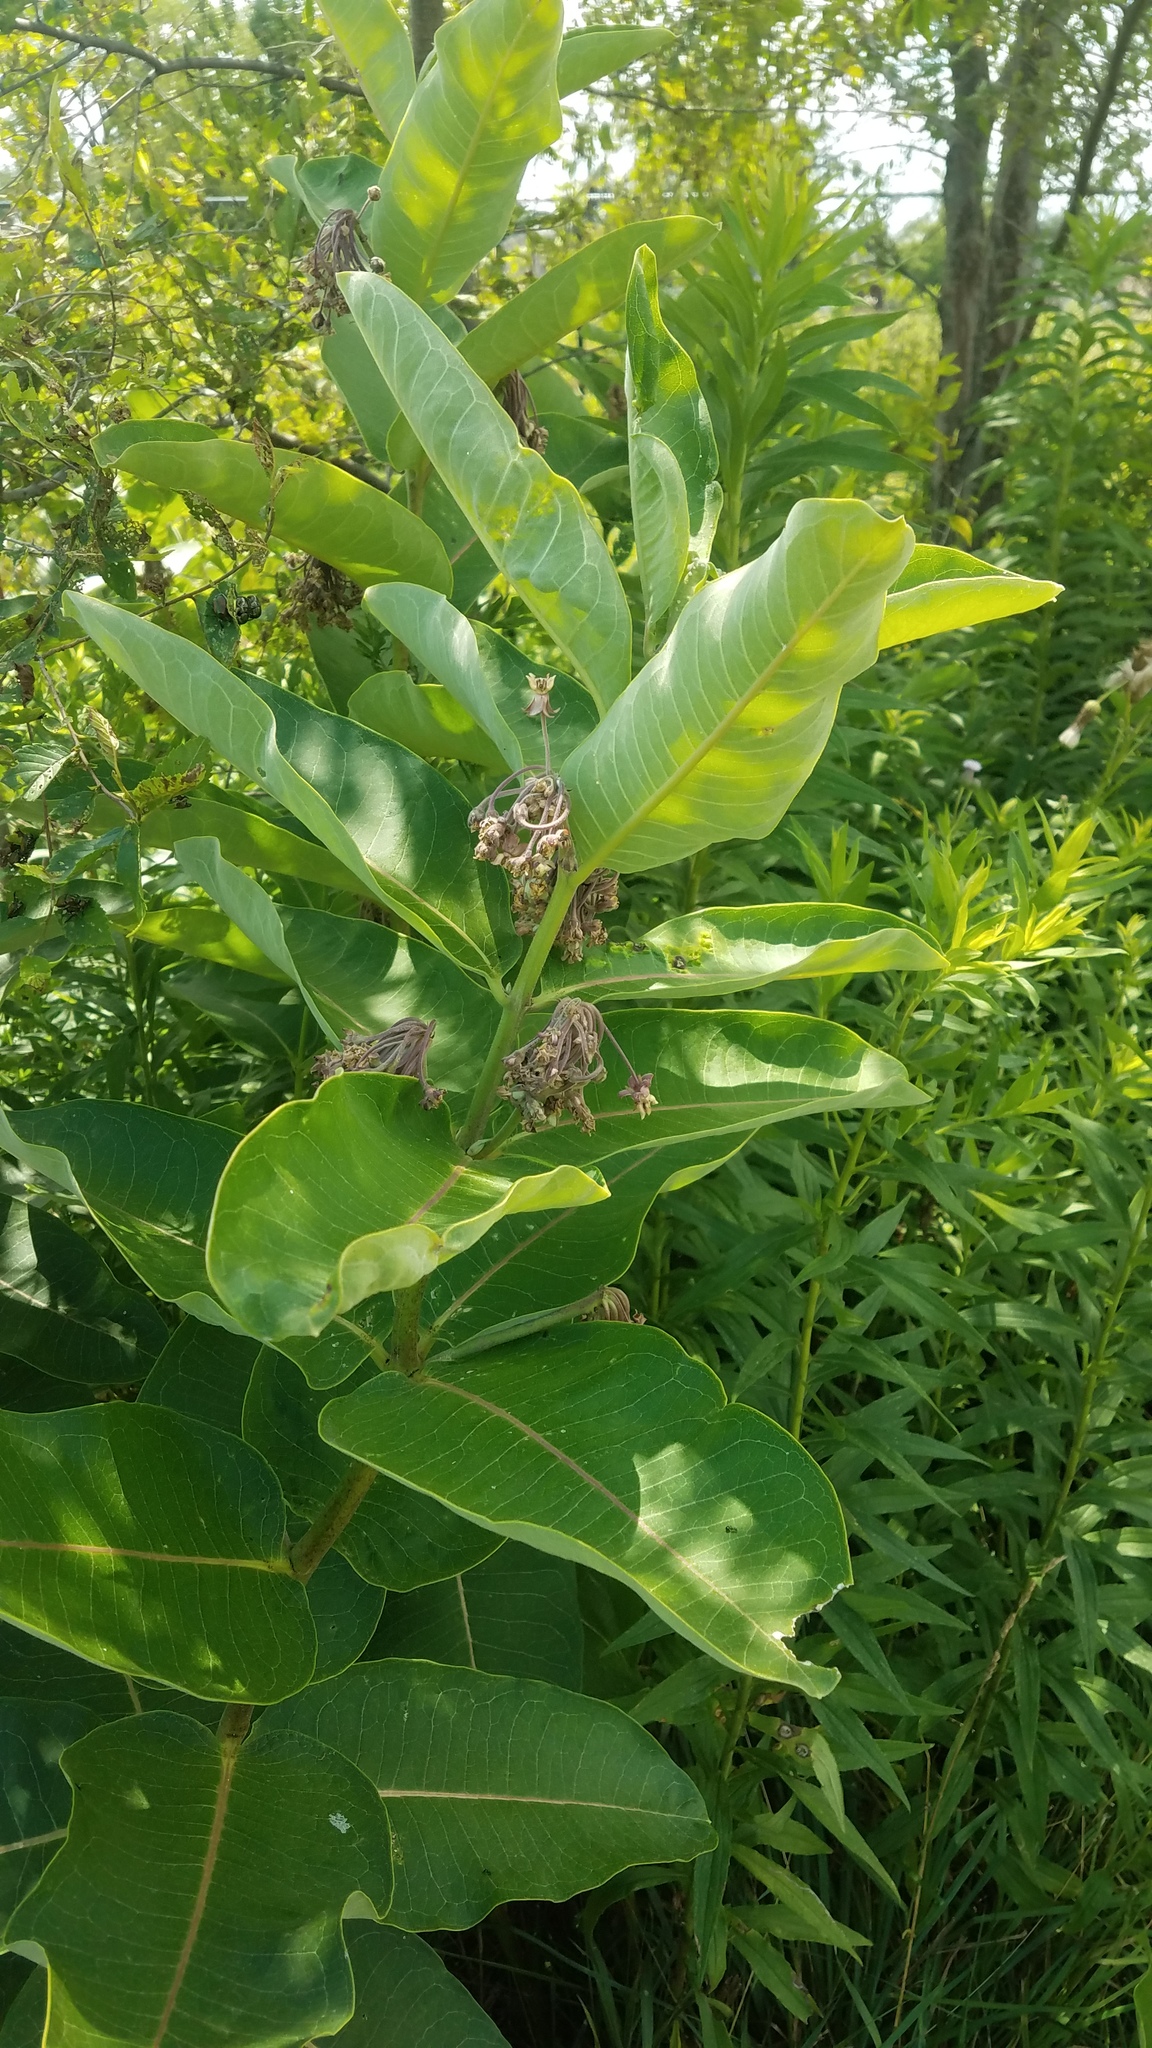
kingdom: Plantae
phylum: Tracheophyta
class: Magnoliopsida
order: Gentianales
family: Apocynaceae
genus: Asclepias
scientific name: Asclepias syriaca
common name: Common milkweed
